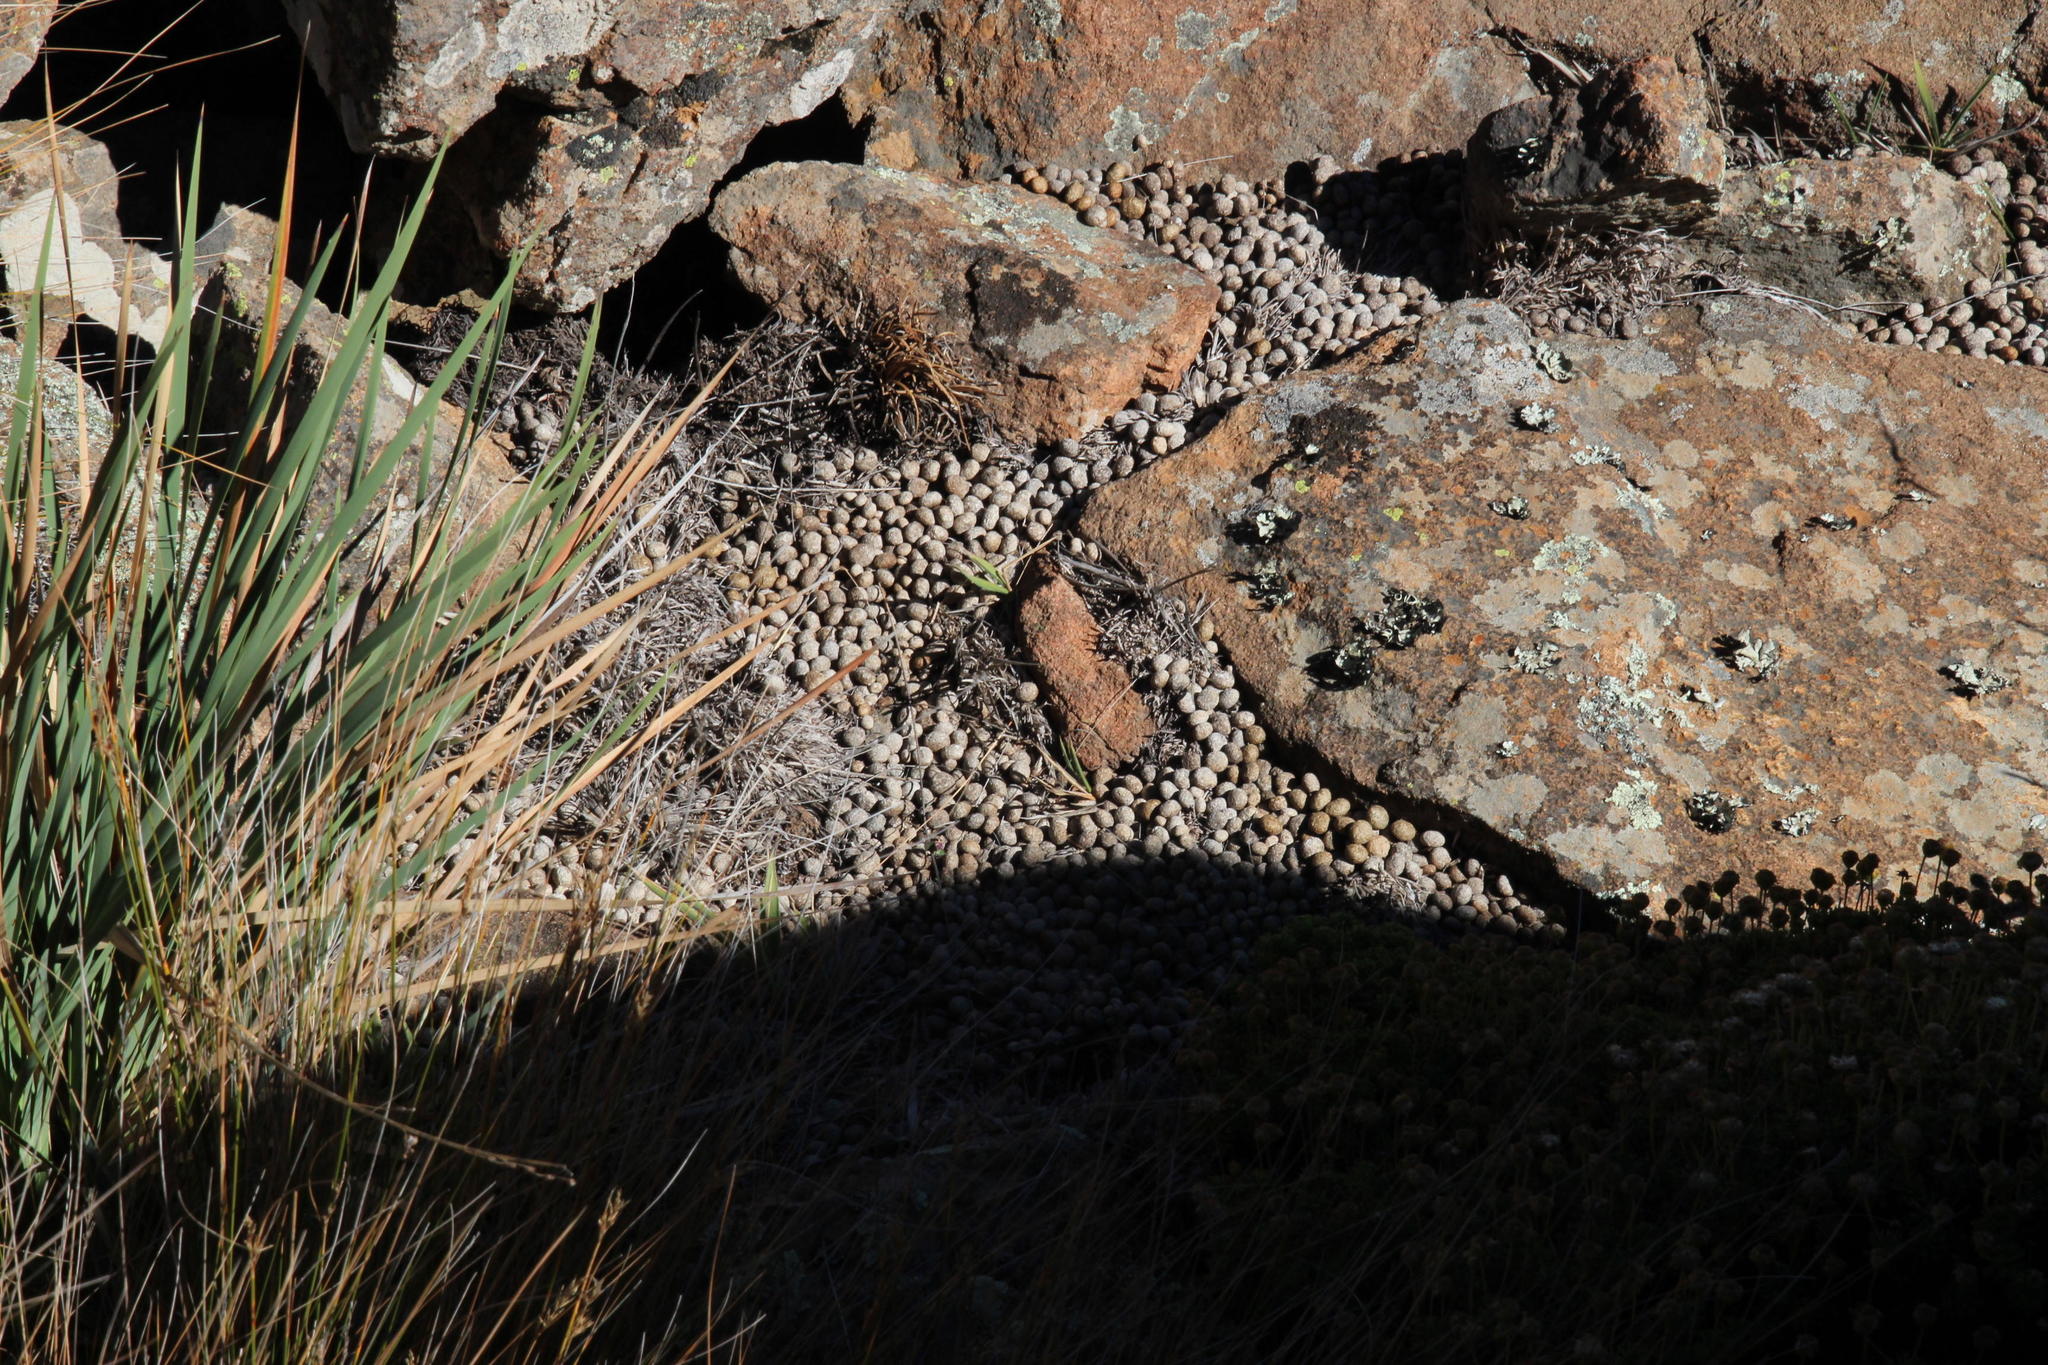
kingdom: Animalia
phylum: Chordata
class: Mammalia
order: Lagomorpha
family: Leporidae
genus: Pronolagus
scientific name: Pronolagus saundersiae
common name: Hewitt's red rock hare
